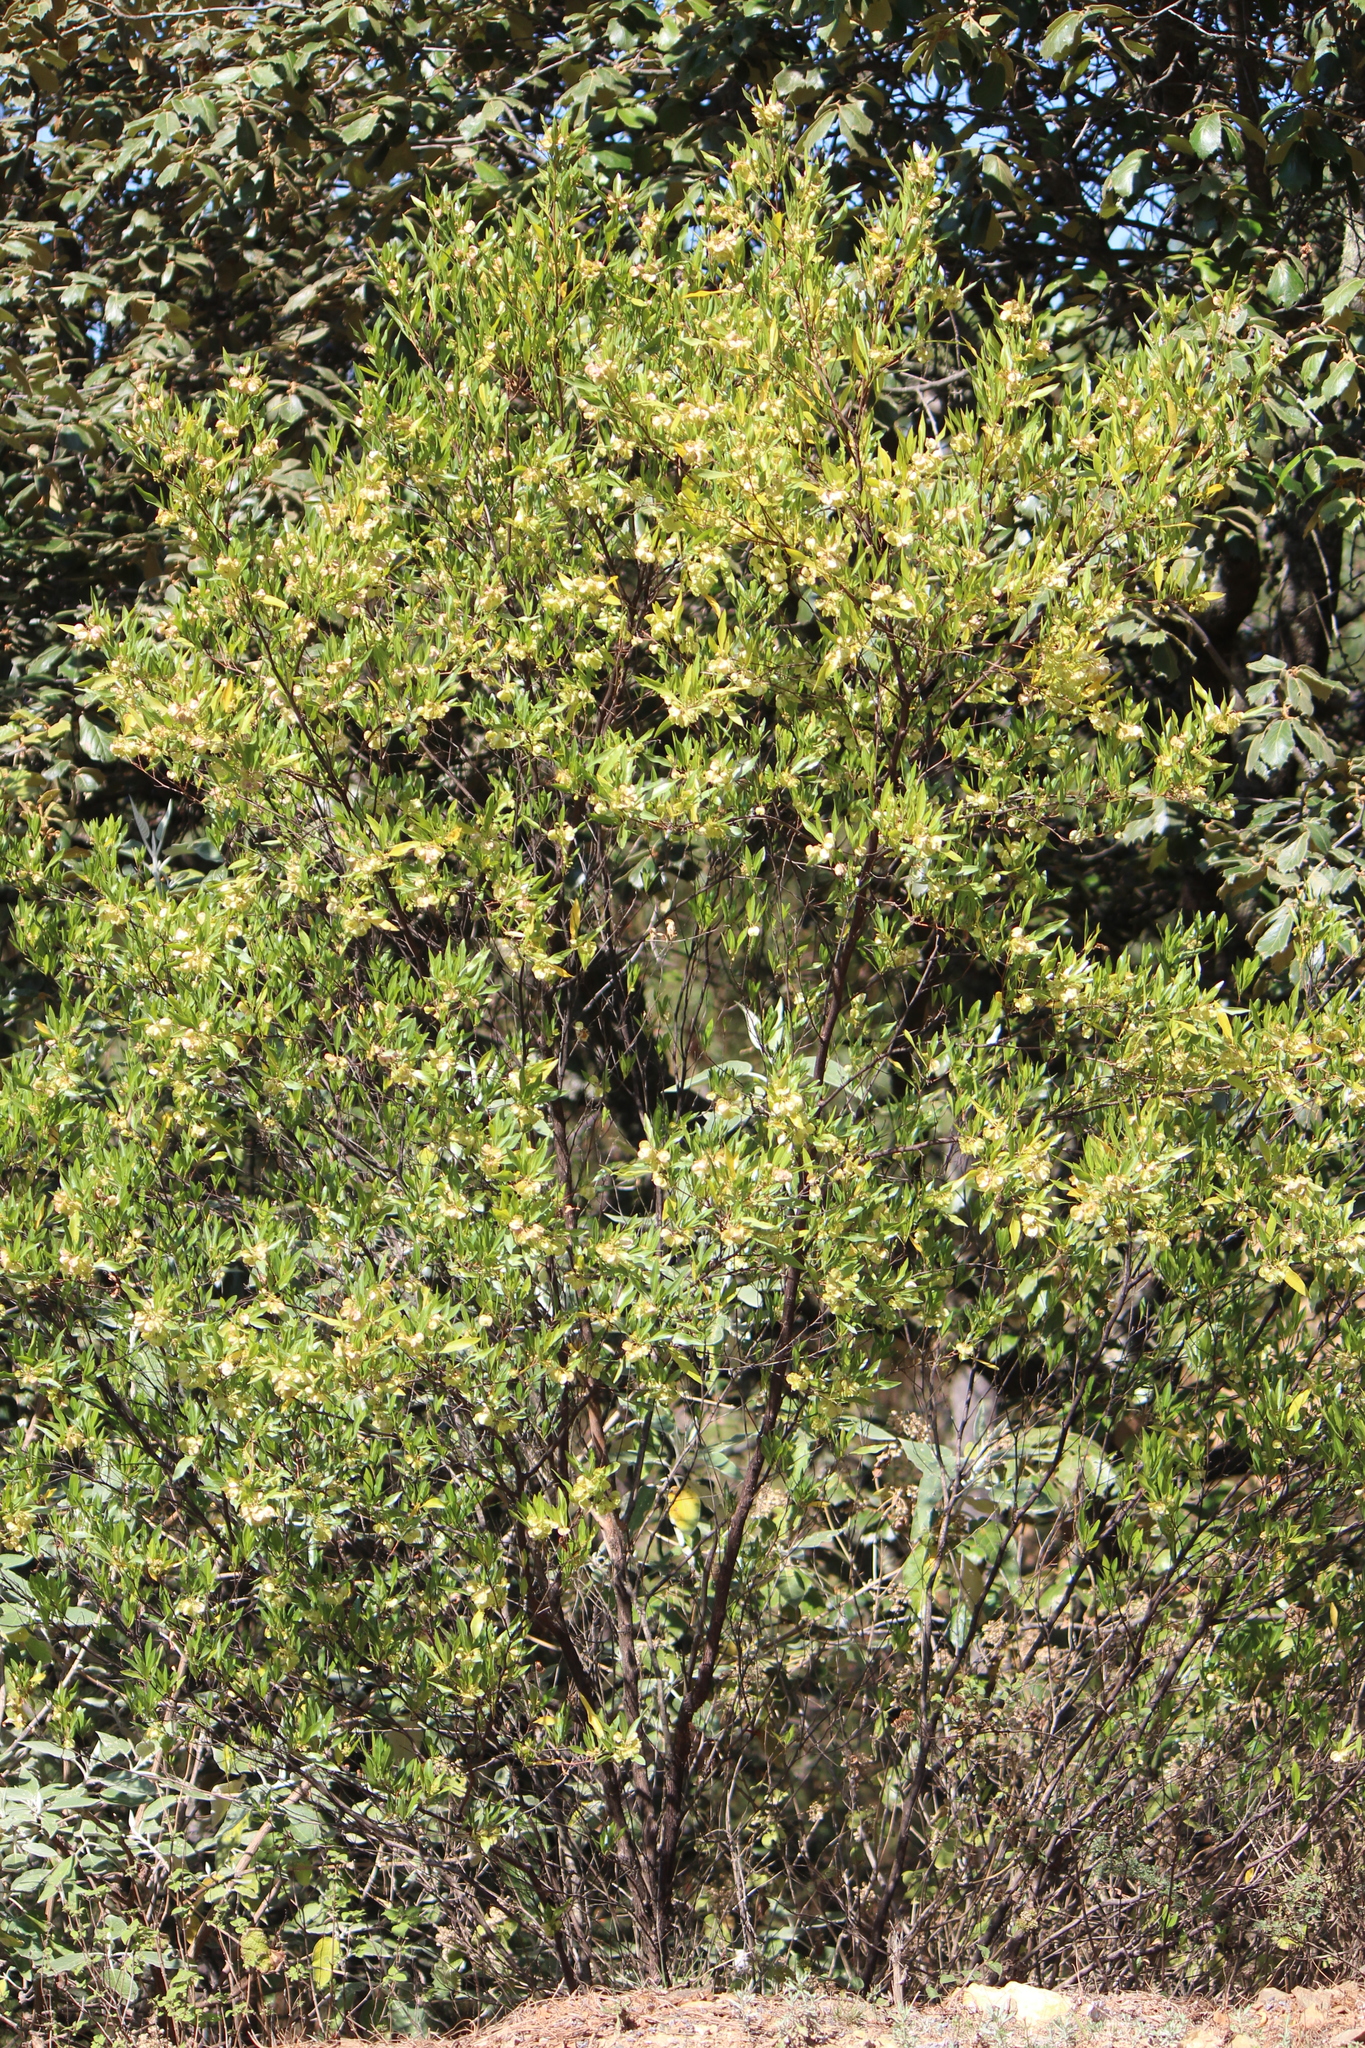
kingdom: Plantae
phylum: Tracheophyta
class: Magnoliopsida
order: Sapindales
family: Sapindaceae
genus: Dodonaea
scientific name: Dodonaea viscosa
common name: Hopbush
